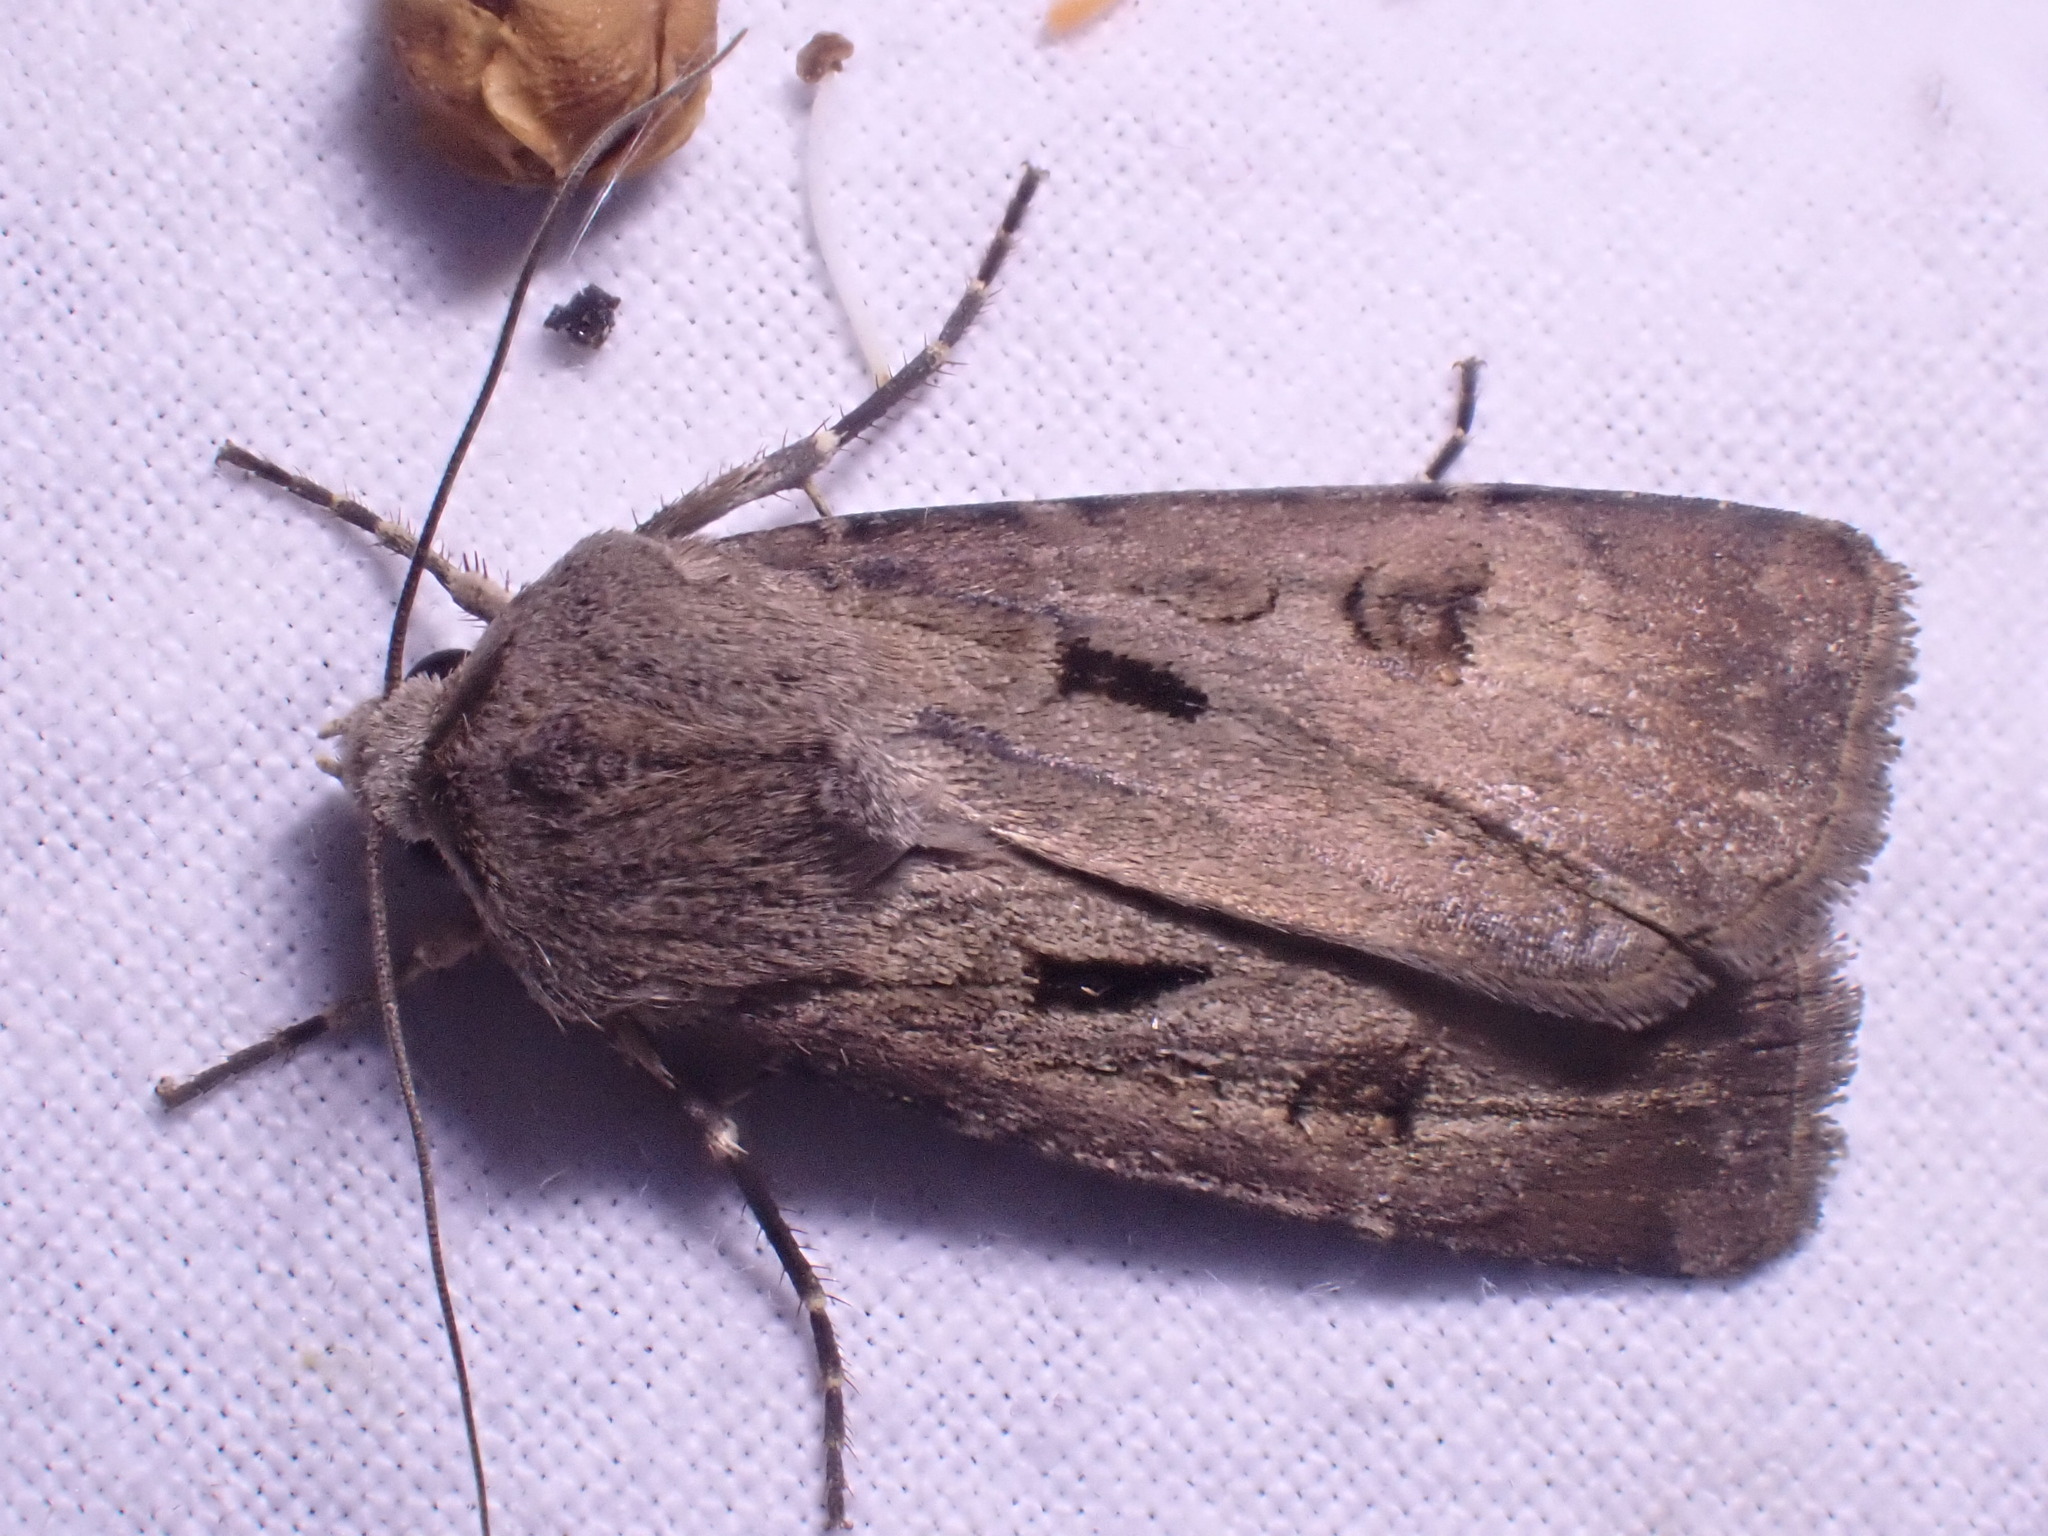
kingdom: Animalia
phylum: Arthropoda
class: Insecta
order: Lepidoptera
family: Noctuidae
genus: Agrotis
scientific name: Agrotis exclamationis
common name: Heart and dart
